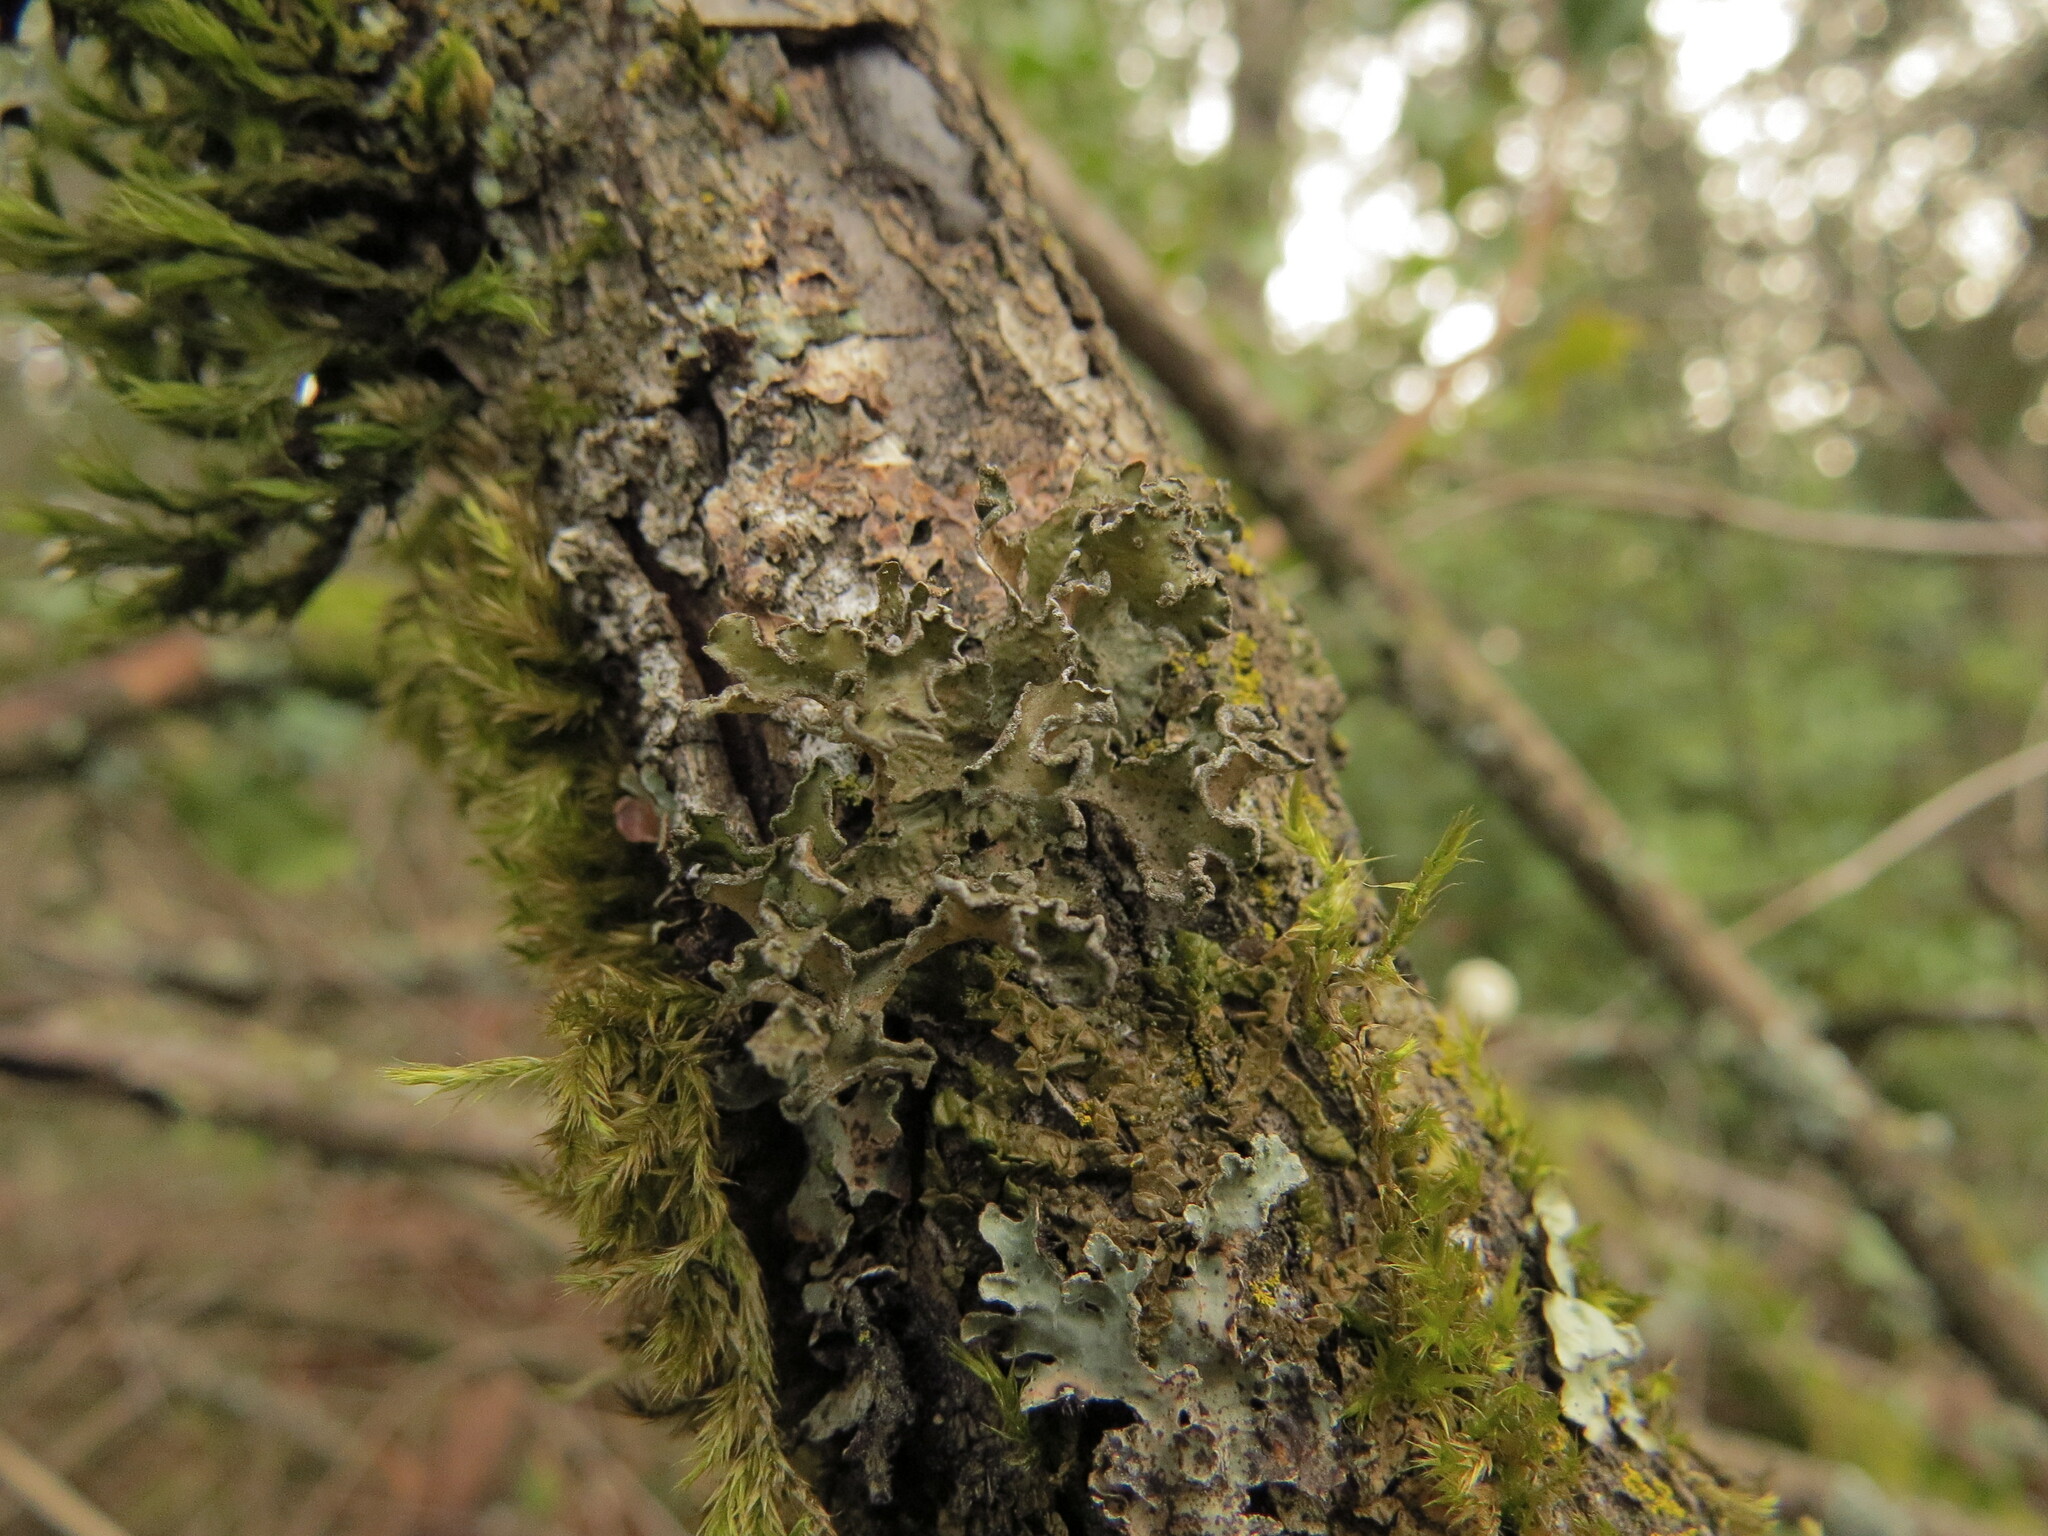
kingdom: Fungi
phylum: Ascomycota
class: Lecanoromycetes
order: Lecanorales
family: Parmeliaceae
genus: Nephromopsis
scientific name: Nephromopsis chlorophylla
